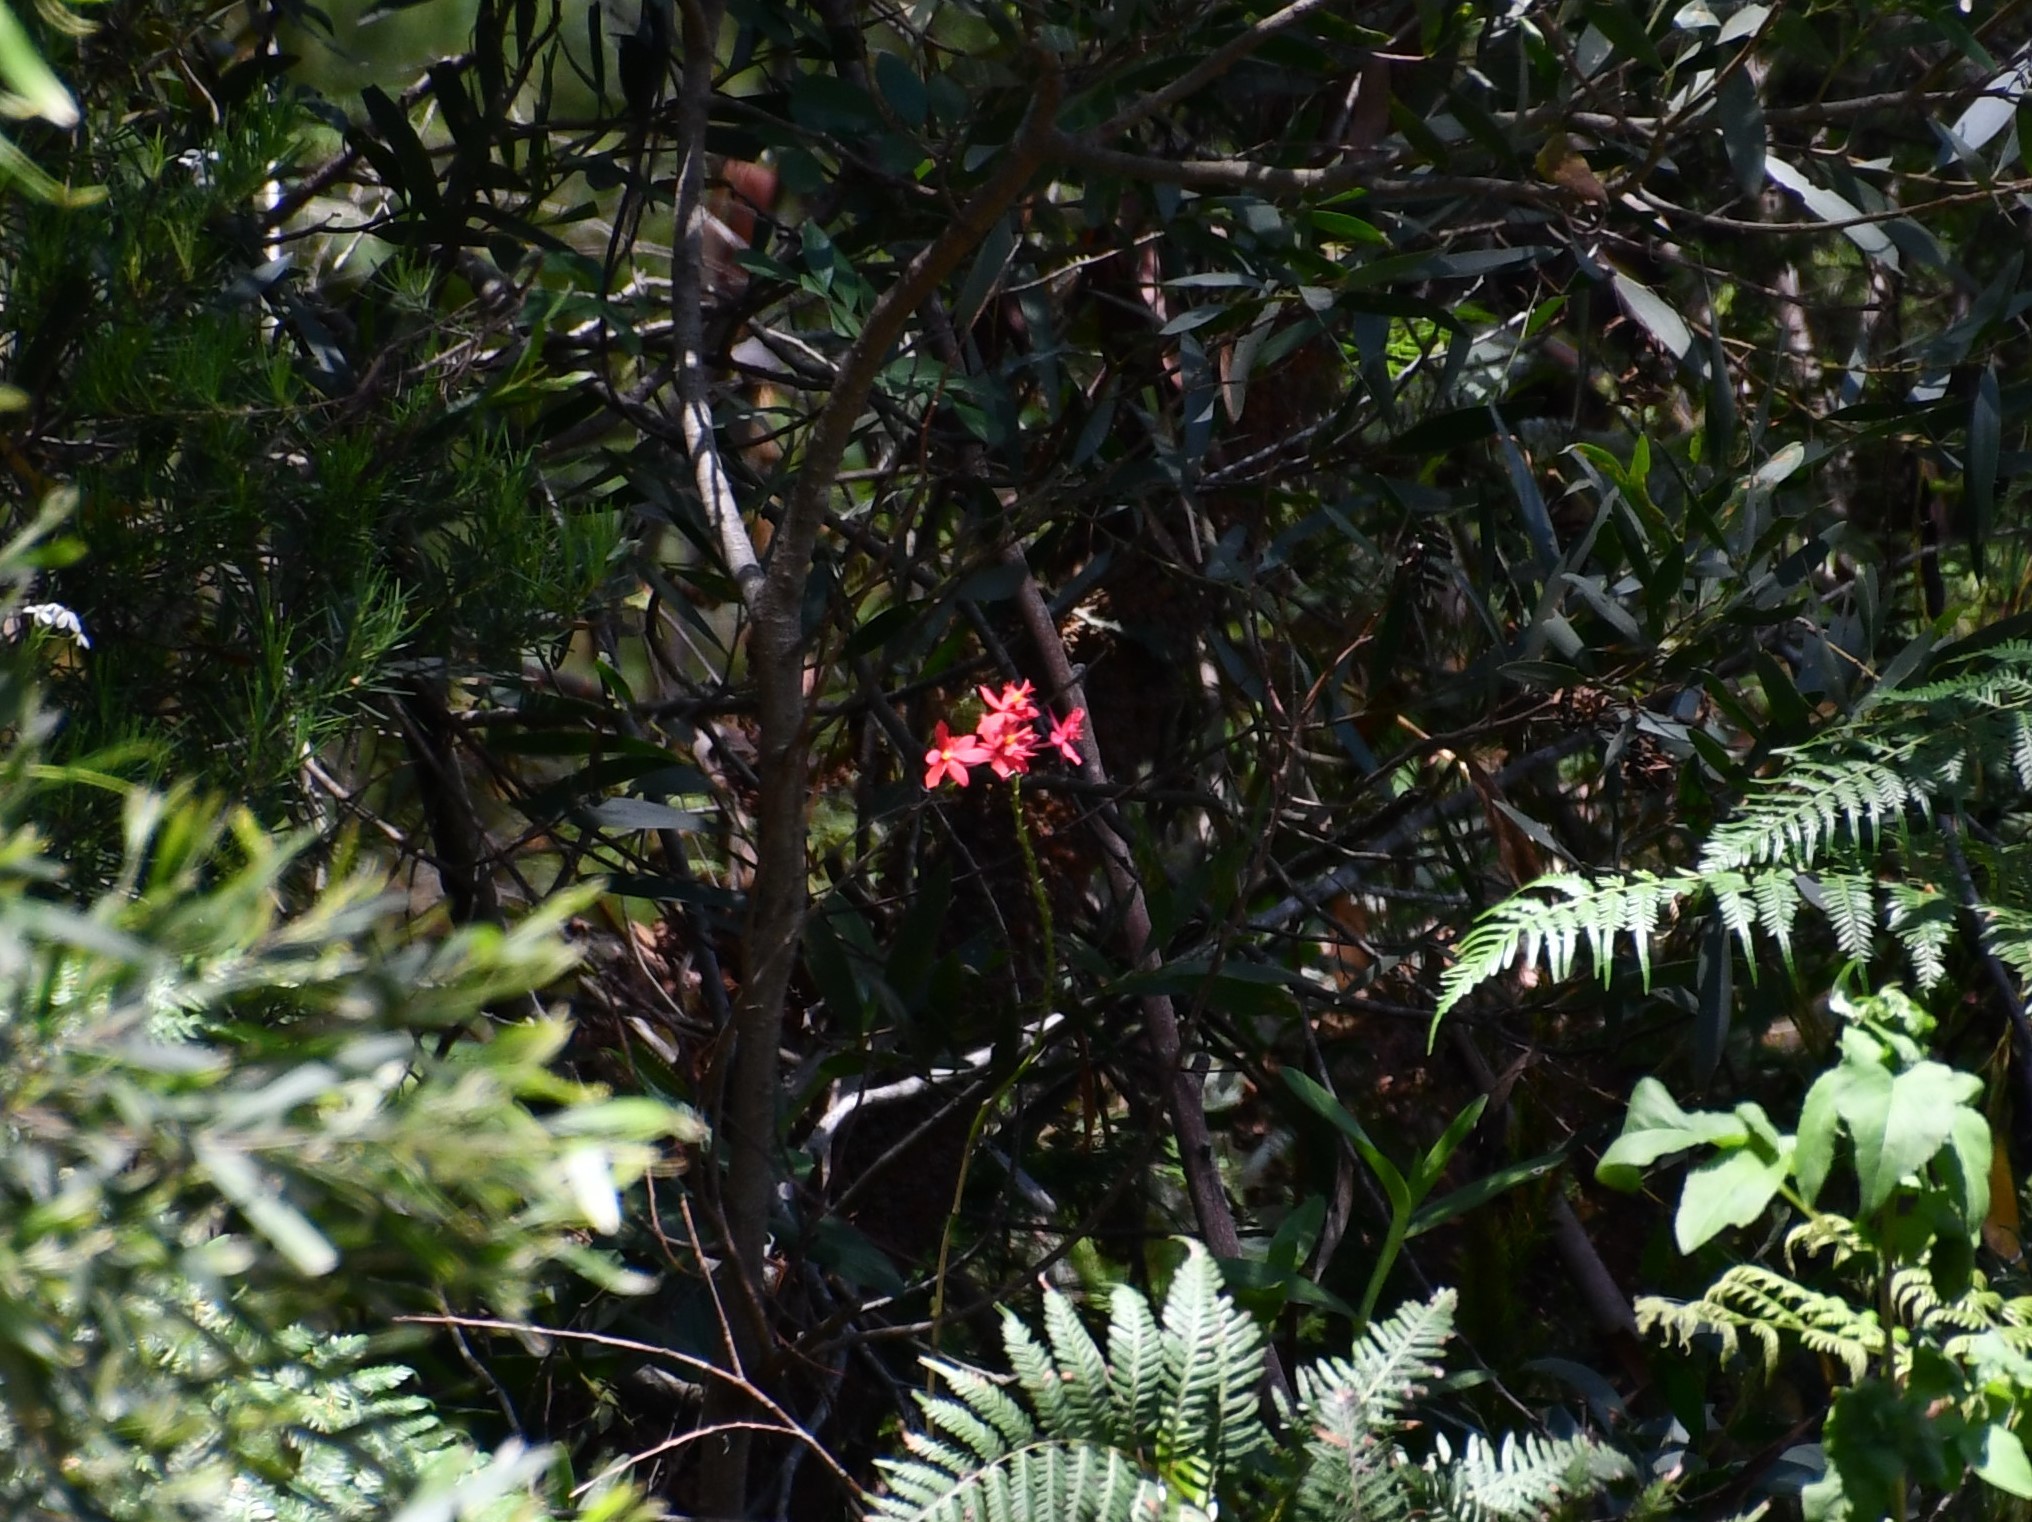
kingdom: Plantae
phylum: Tracheophyta
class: Liliopsida
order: Asparagales
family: Orchidaceae
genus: Epidendrum
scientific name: Epidendrum
